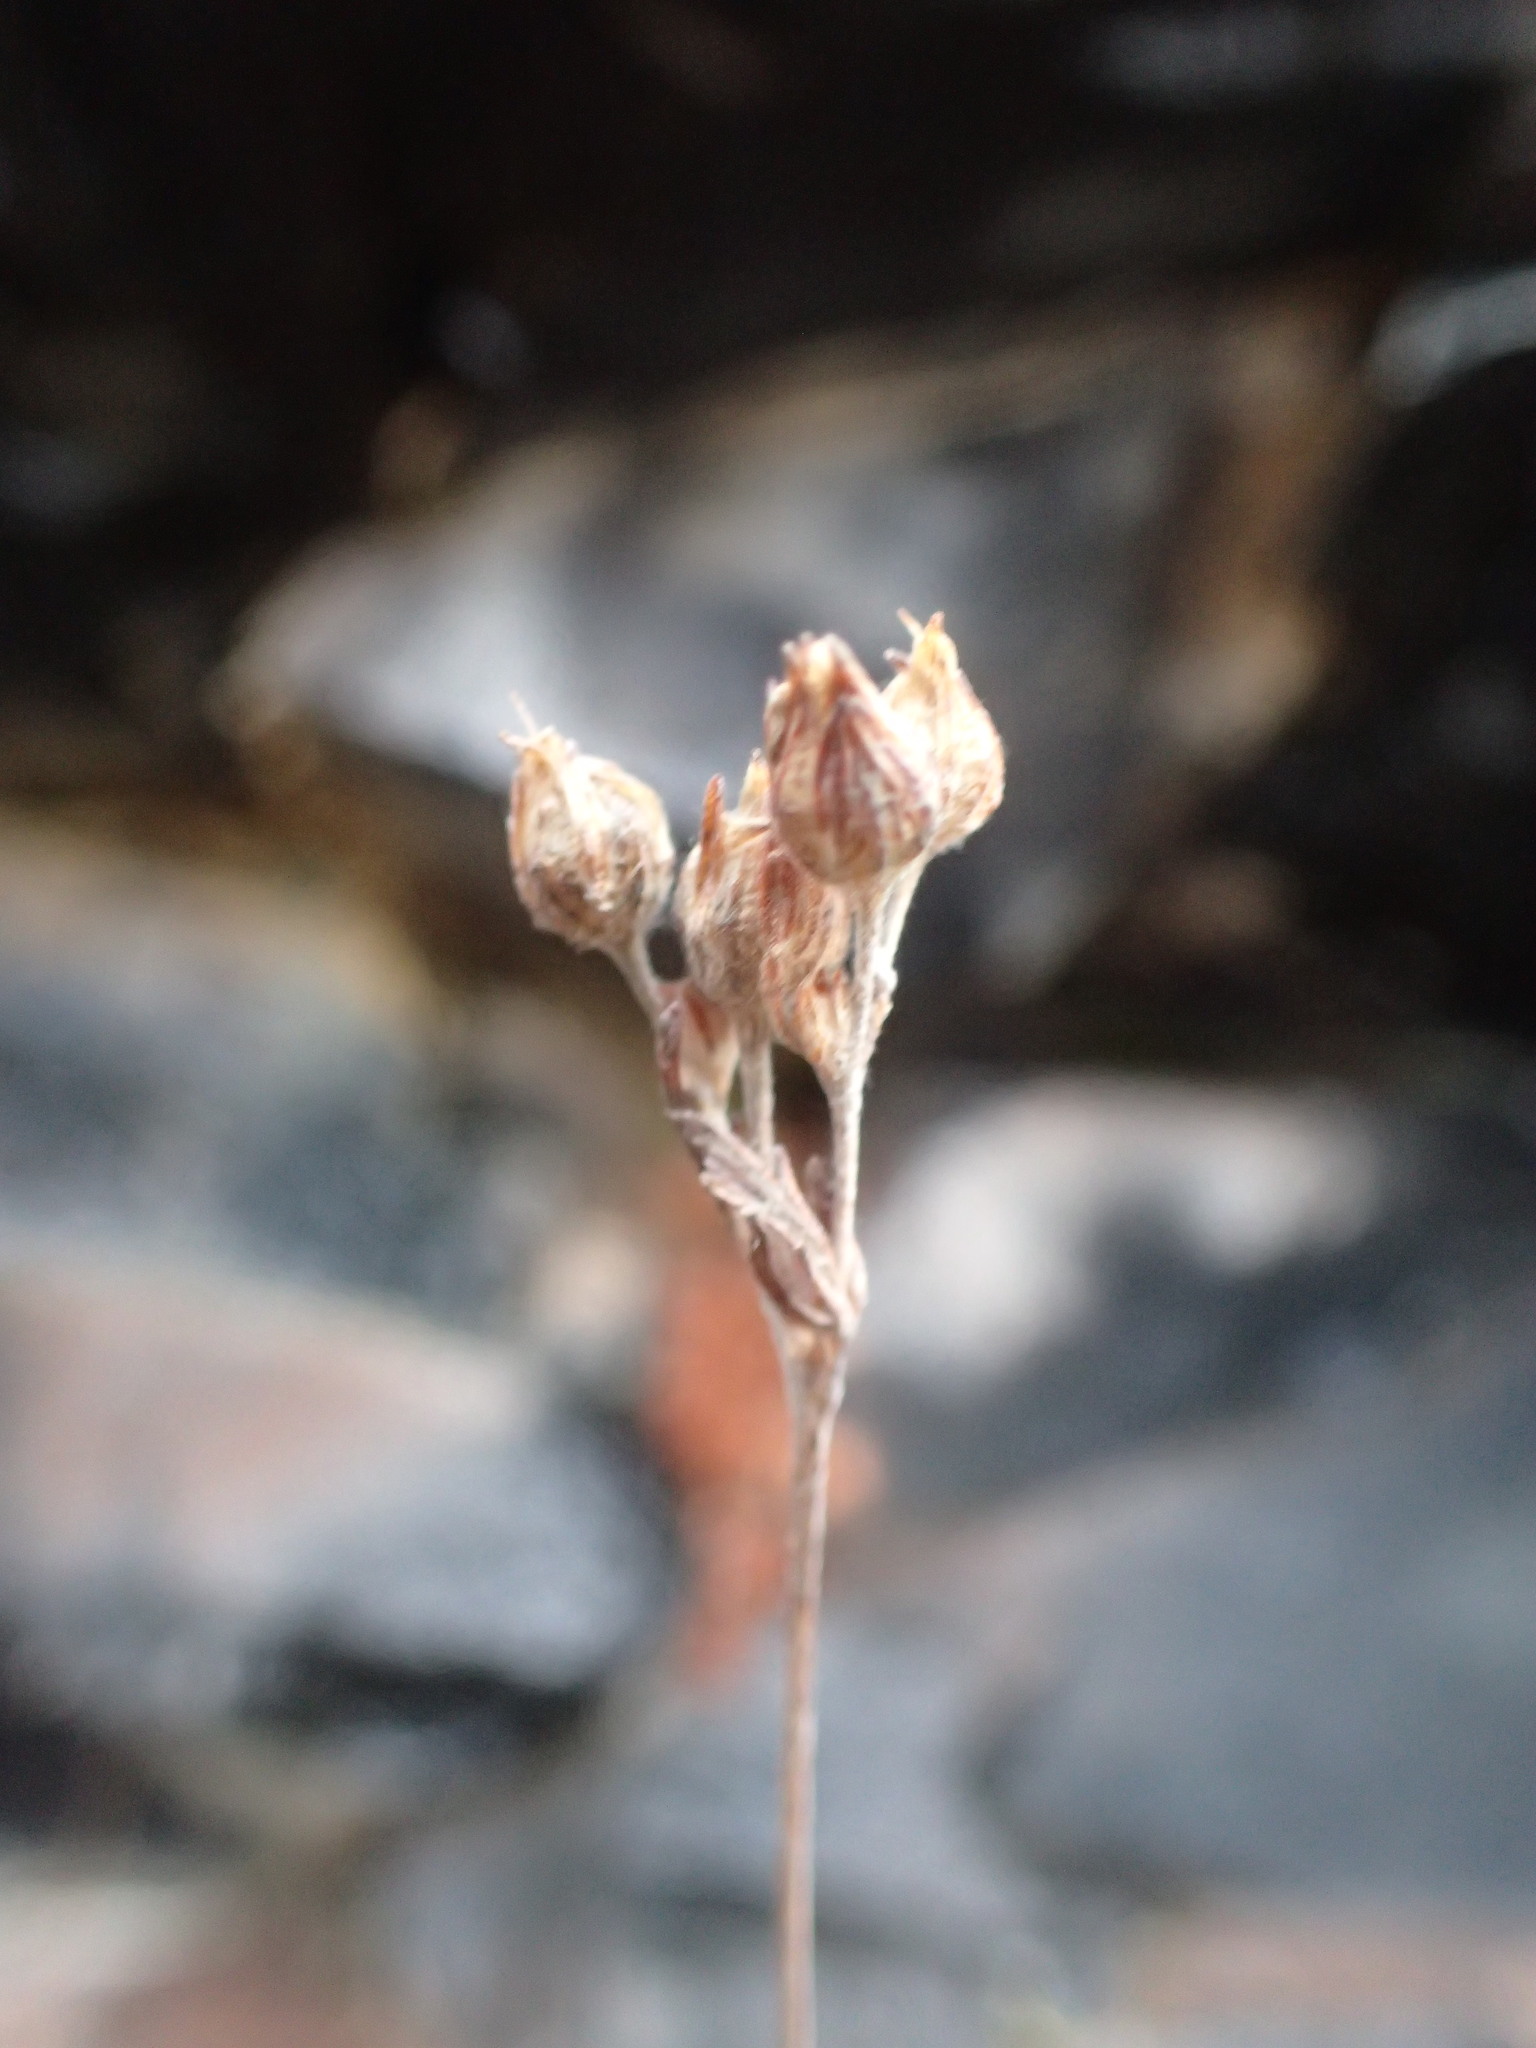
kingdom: Plantae
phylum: Tracheophyta
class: Magnoliopsida
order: Rosales
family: Rosaceae
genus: Potentilla
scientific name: Potentilla litoralis
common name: Coast cinquefoil
